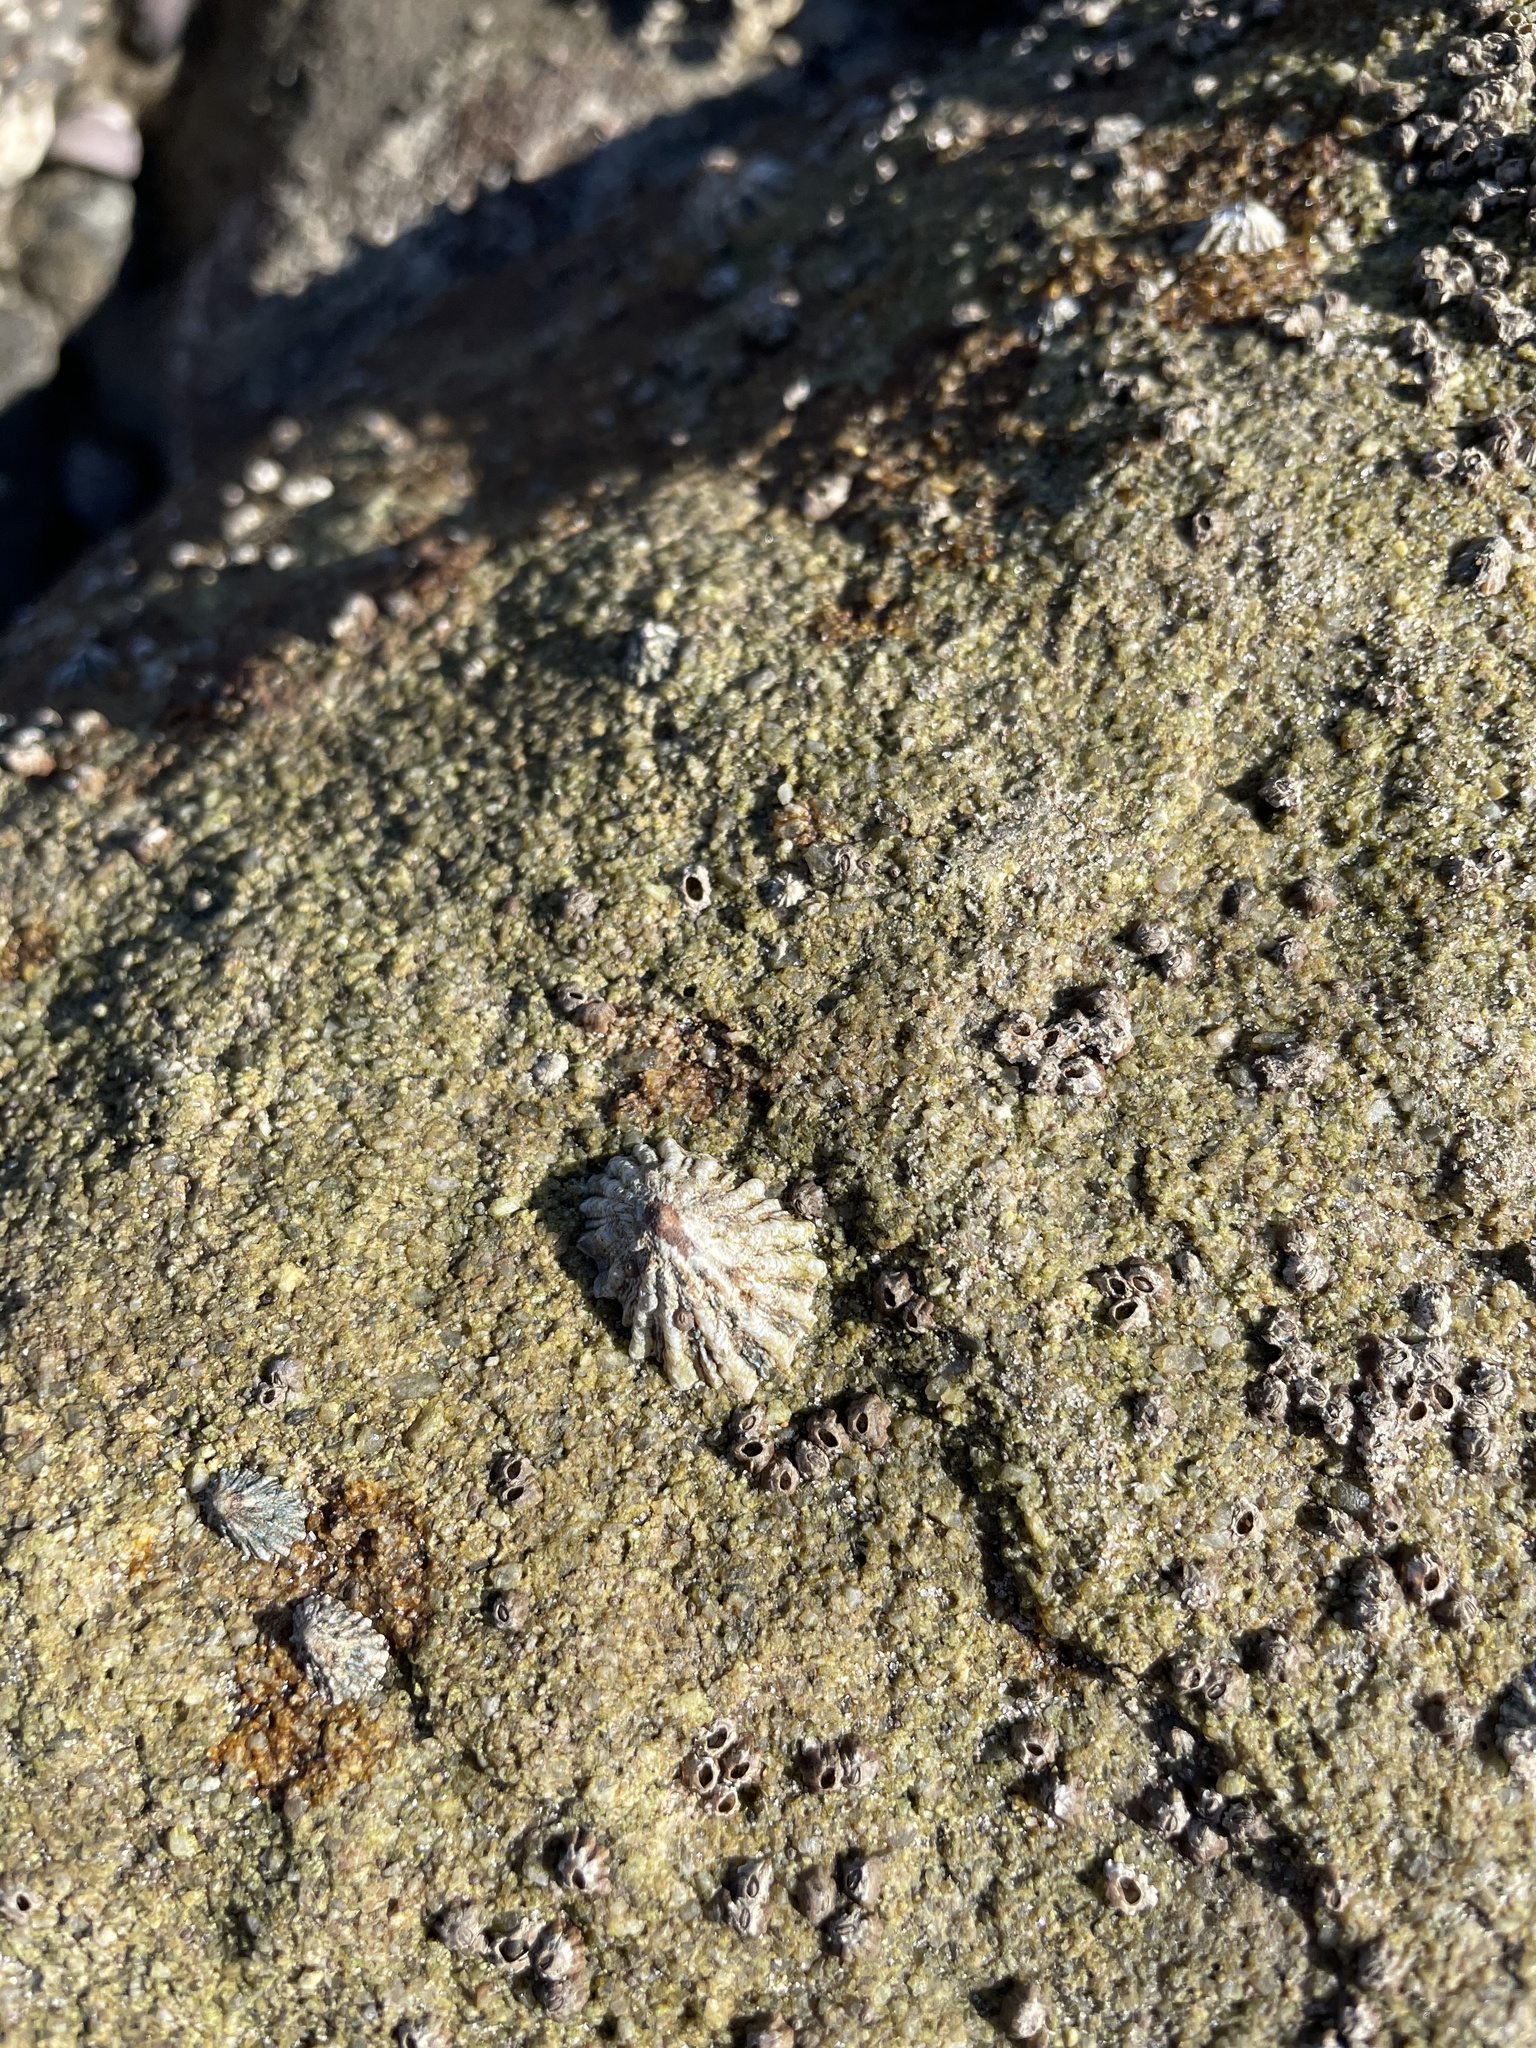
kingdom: Animalia
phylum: Mollusca
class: Gastropoda
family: Lottiidae
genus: Lottia
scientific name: Lottia scabra
